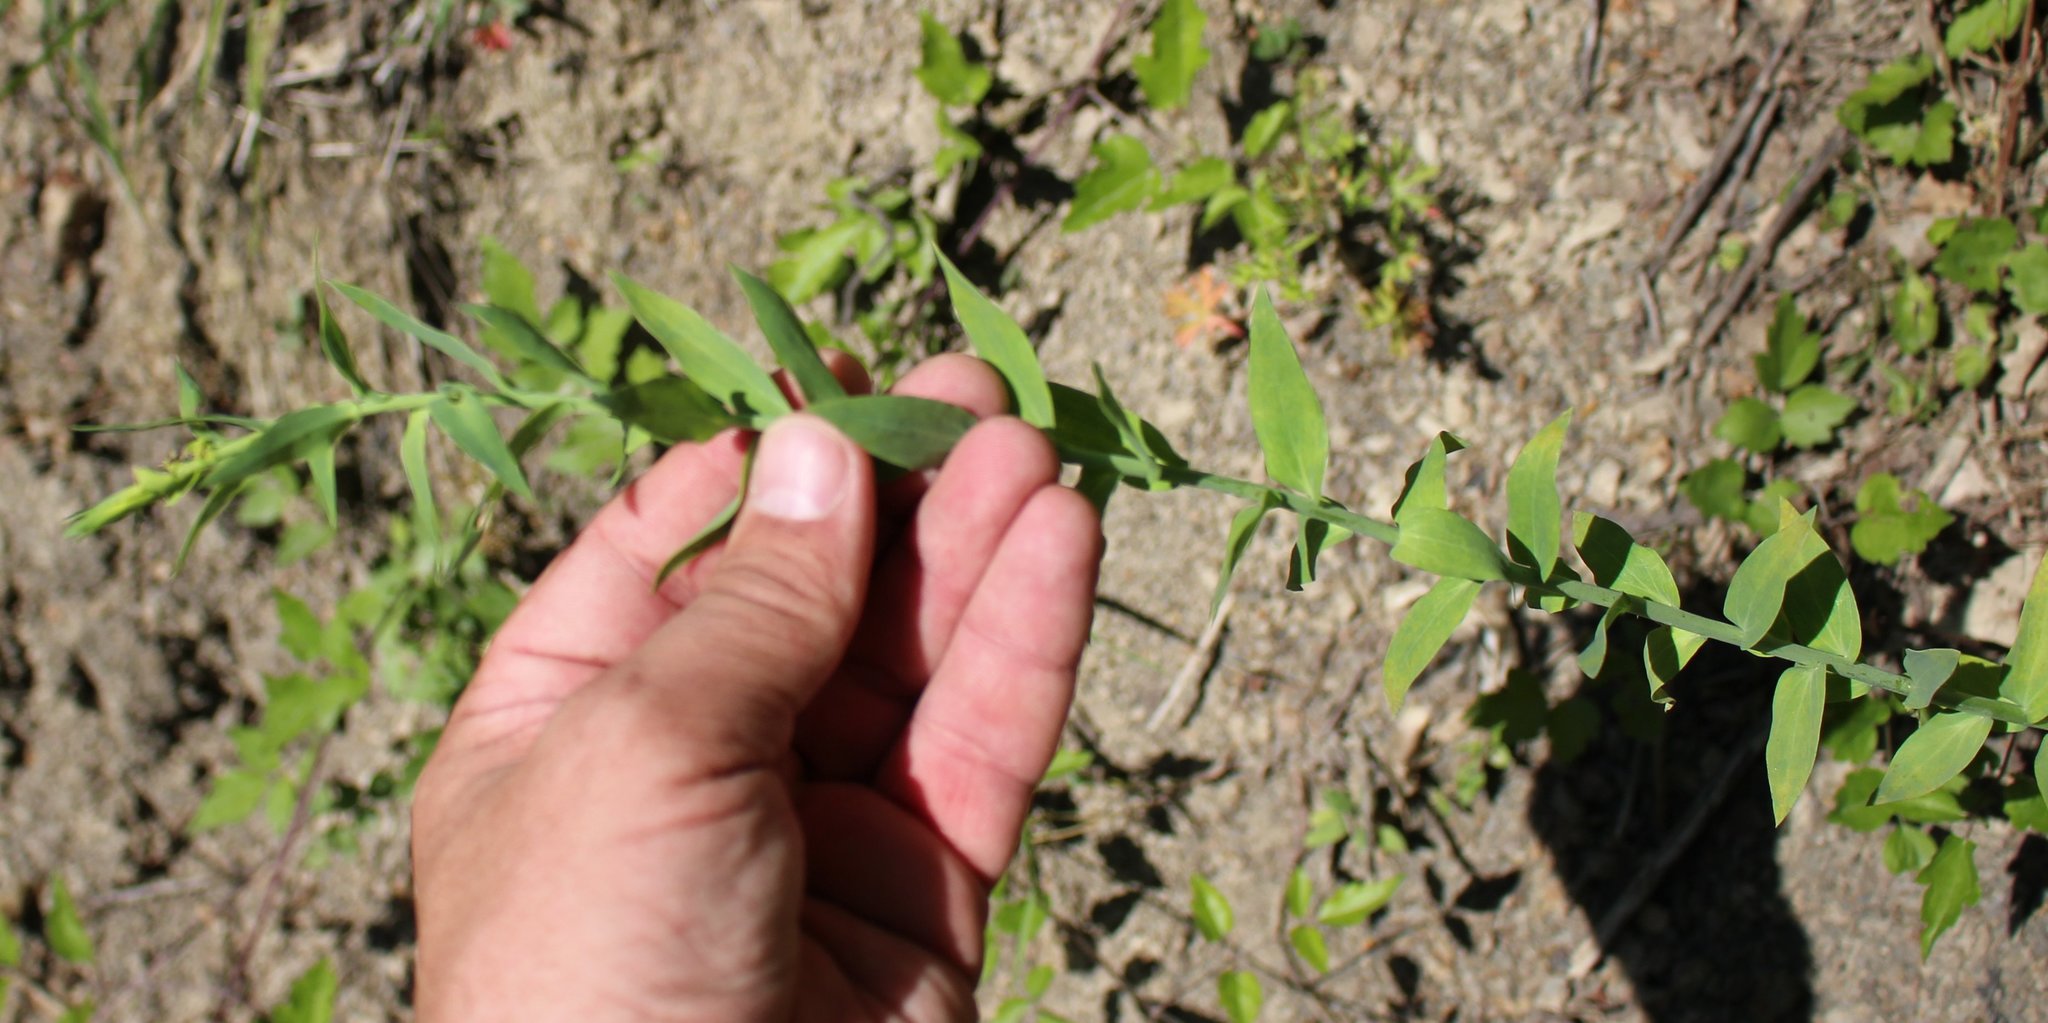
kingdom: Plantae
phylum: Tracheophyta
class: Magnoliopsida
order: Lamiales
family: Plantaginaceae
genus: Linaria
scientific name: Linaria genistifolia
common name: Broomleaf toadflax
